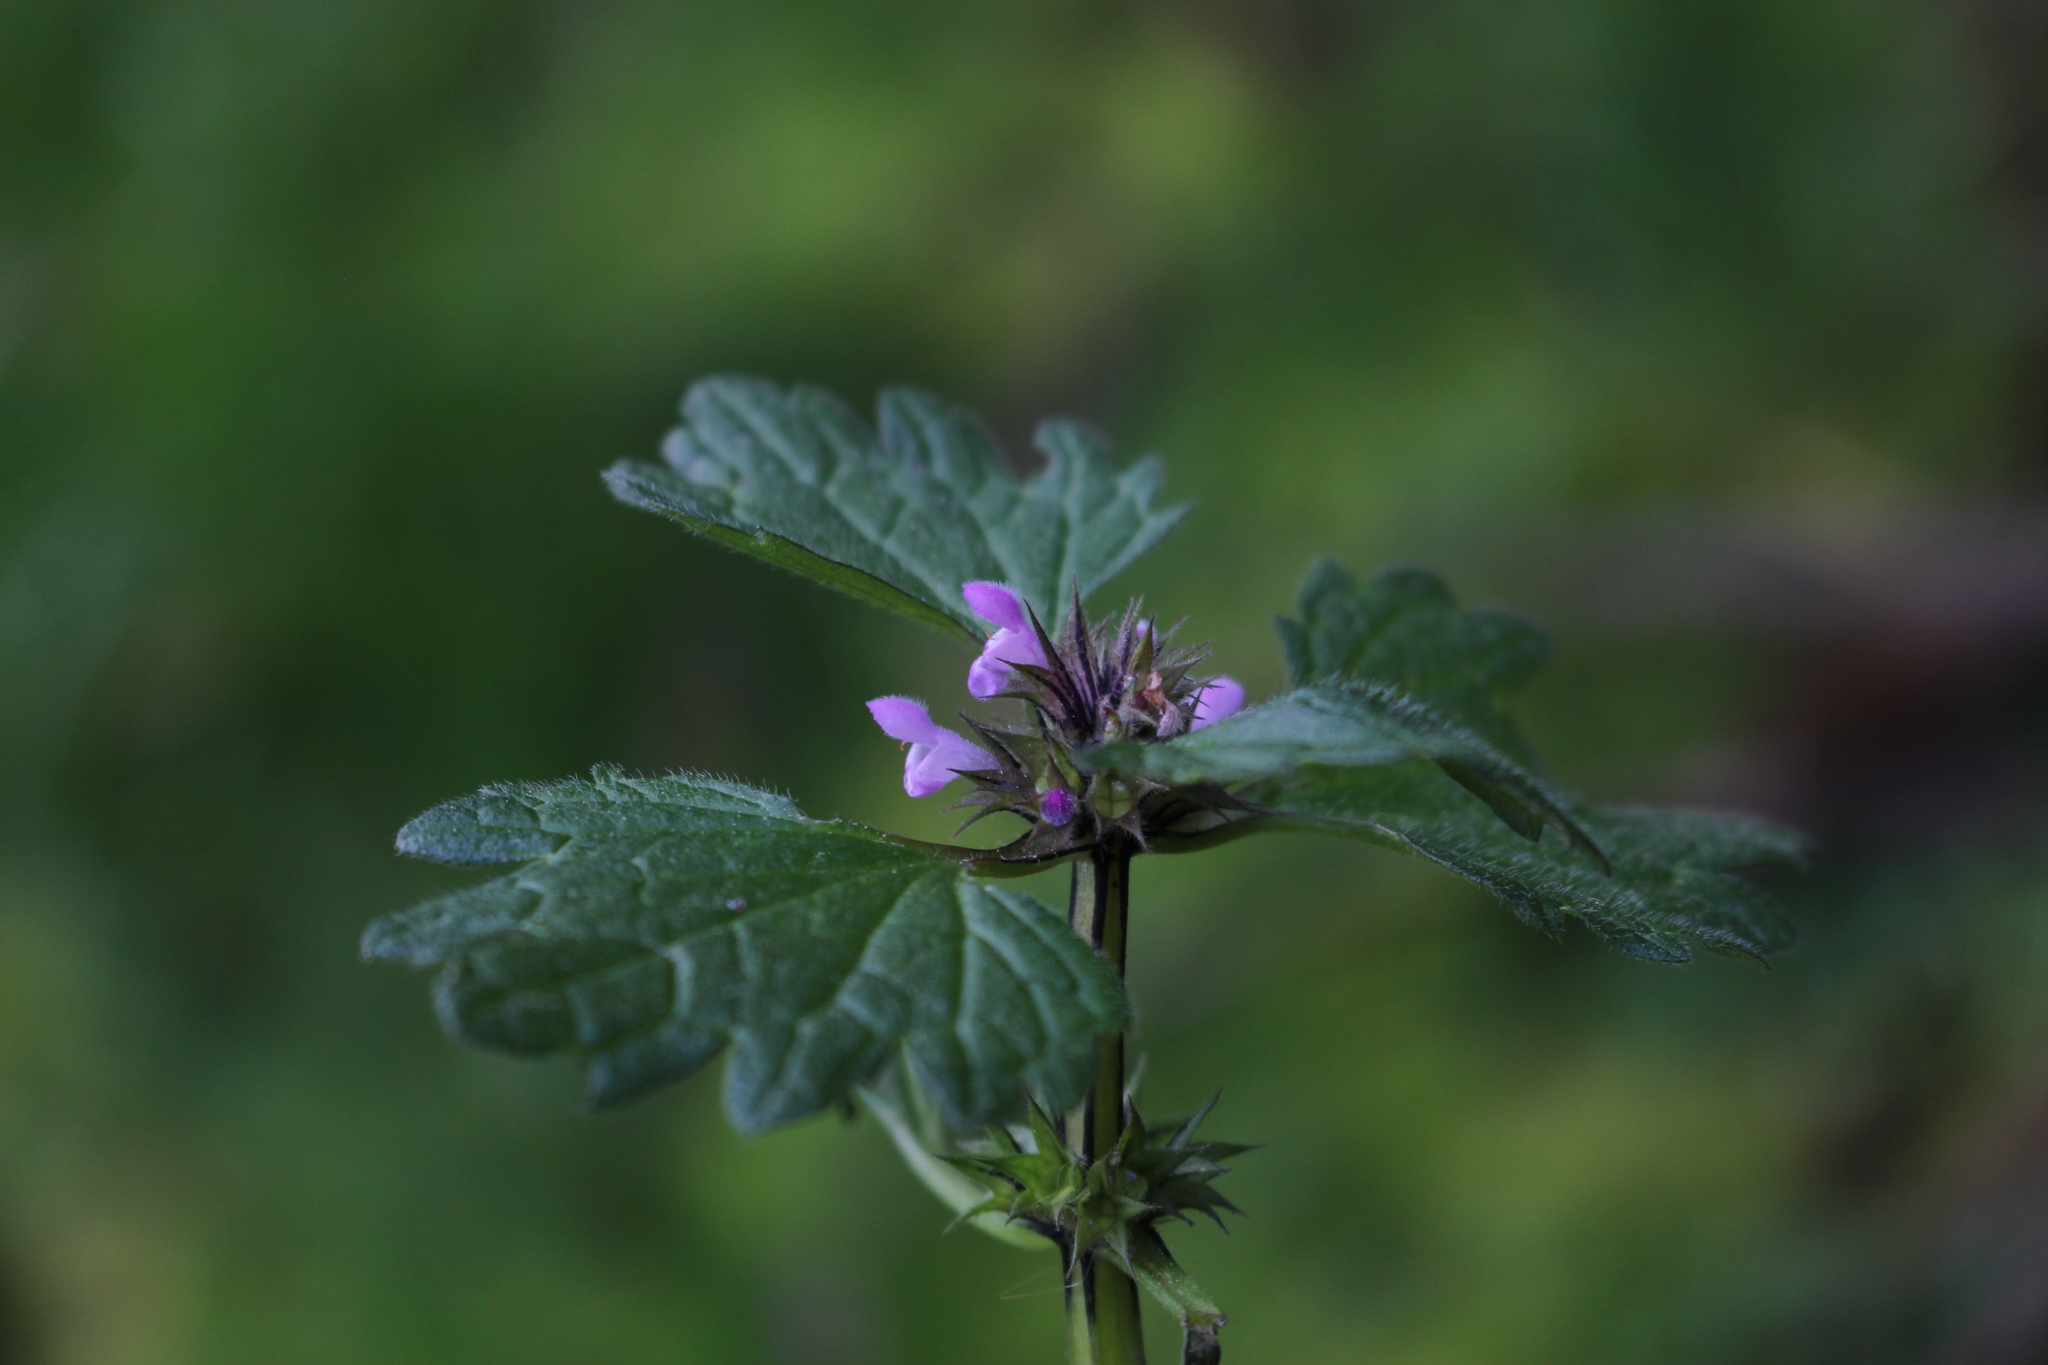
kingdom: Plantae
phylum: Tracheophyta
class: Magnoliopsida
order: Lamiales
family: Lamiaceae
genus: Lamium
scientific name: Lamium hybridum
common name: Cut-leaved dead-nettle
